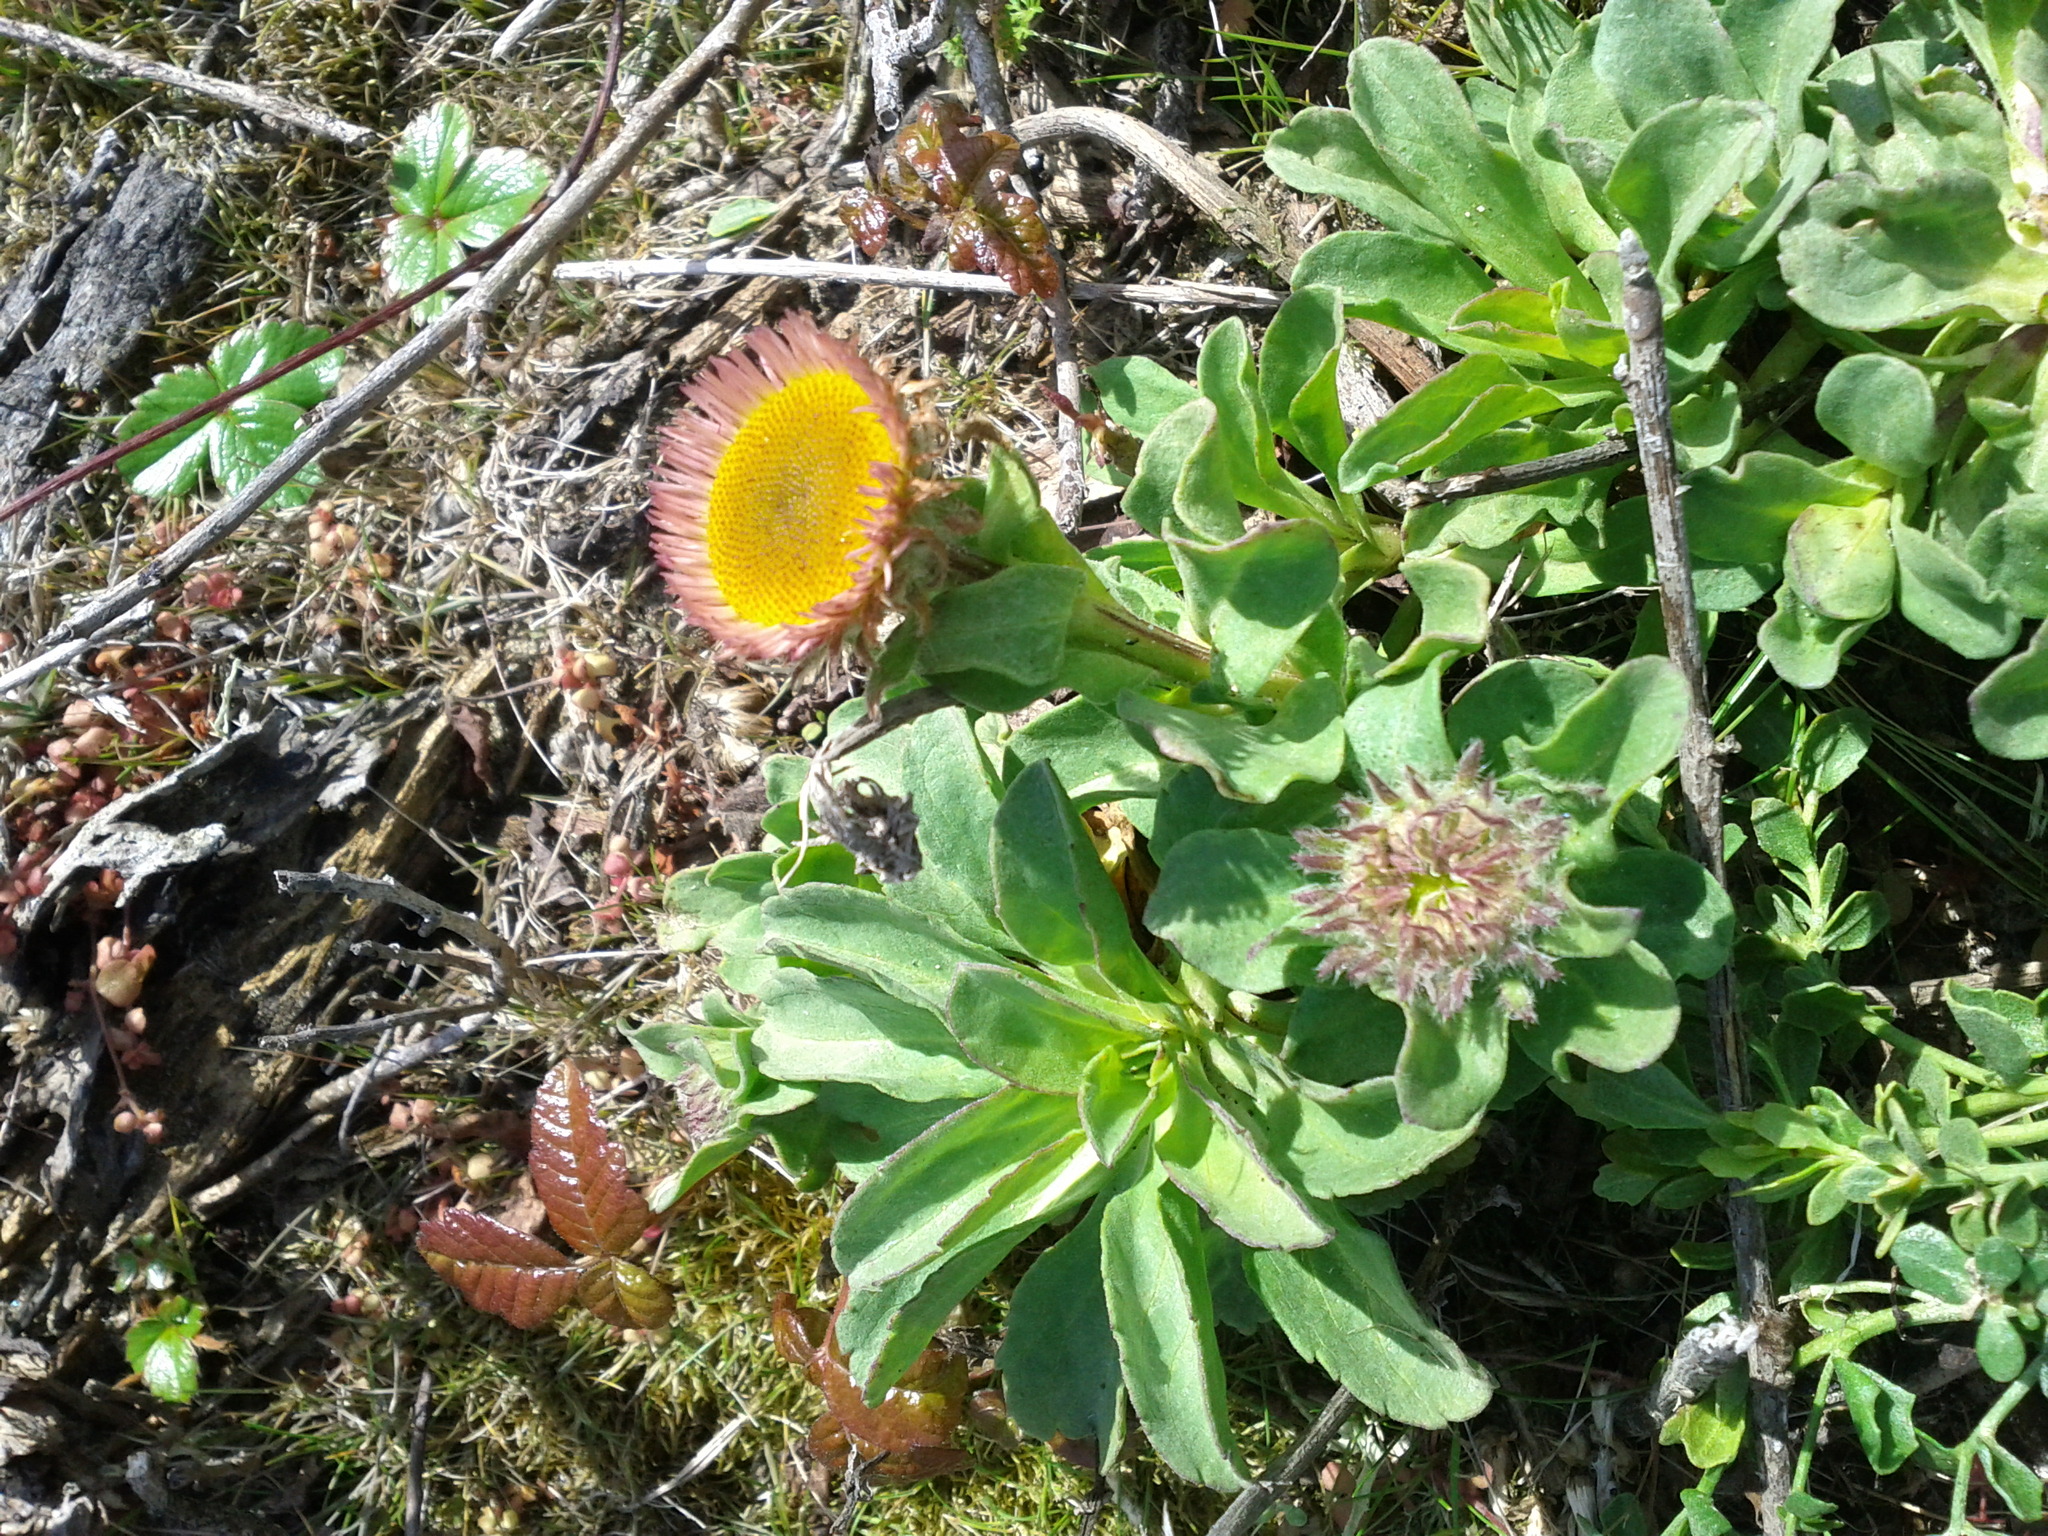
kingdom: Plantae
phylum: Tracheophyta
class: Magnoliopsida
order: Asterales
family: Asteraceae
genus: Erigeron
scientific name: Erigeron glaucus
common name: Seaside daisy
